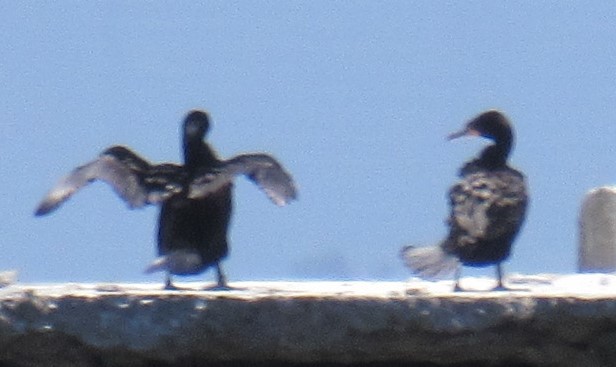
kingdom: Animalia
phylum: Chordata
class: Aves
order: Suliformes
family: Phalacrocoracidae
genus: Urile
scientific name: Urile penicillatus
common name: Brandt's cormorant
